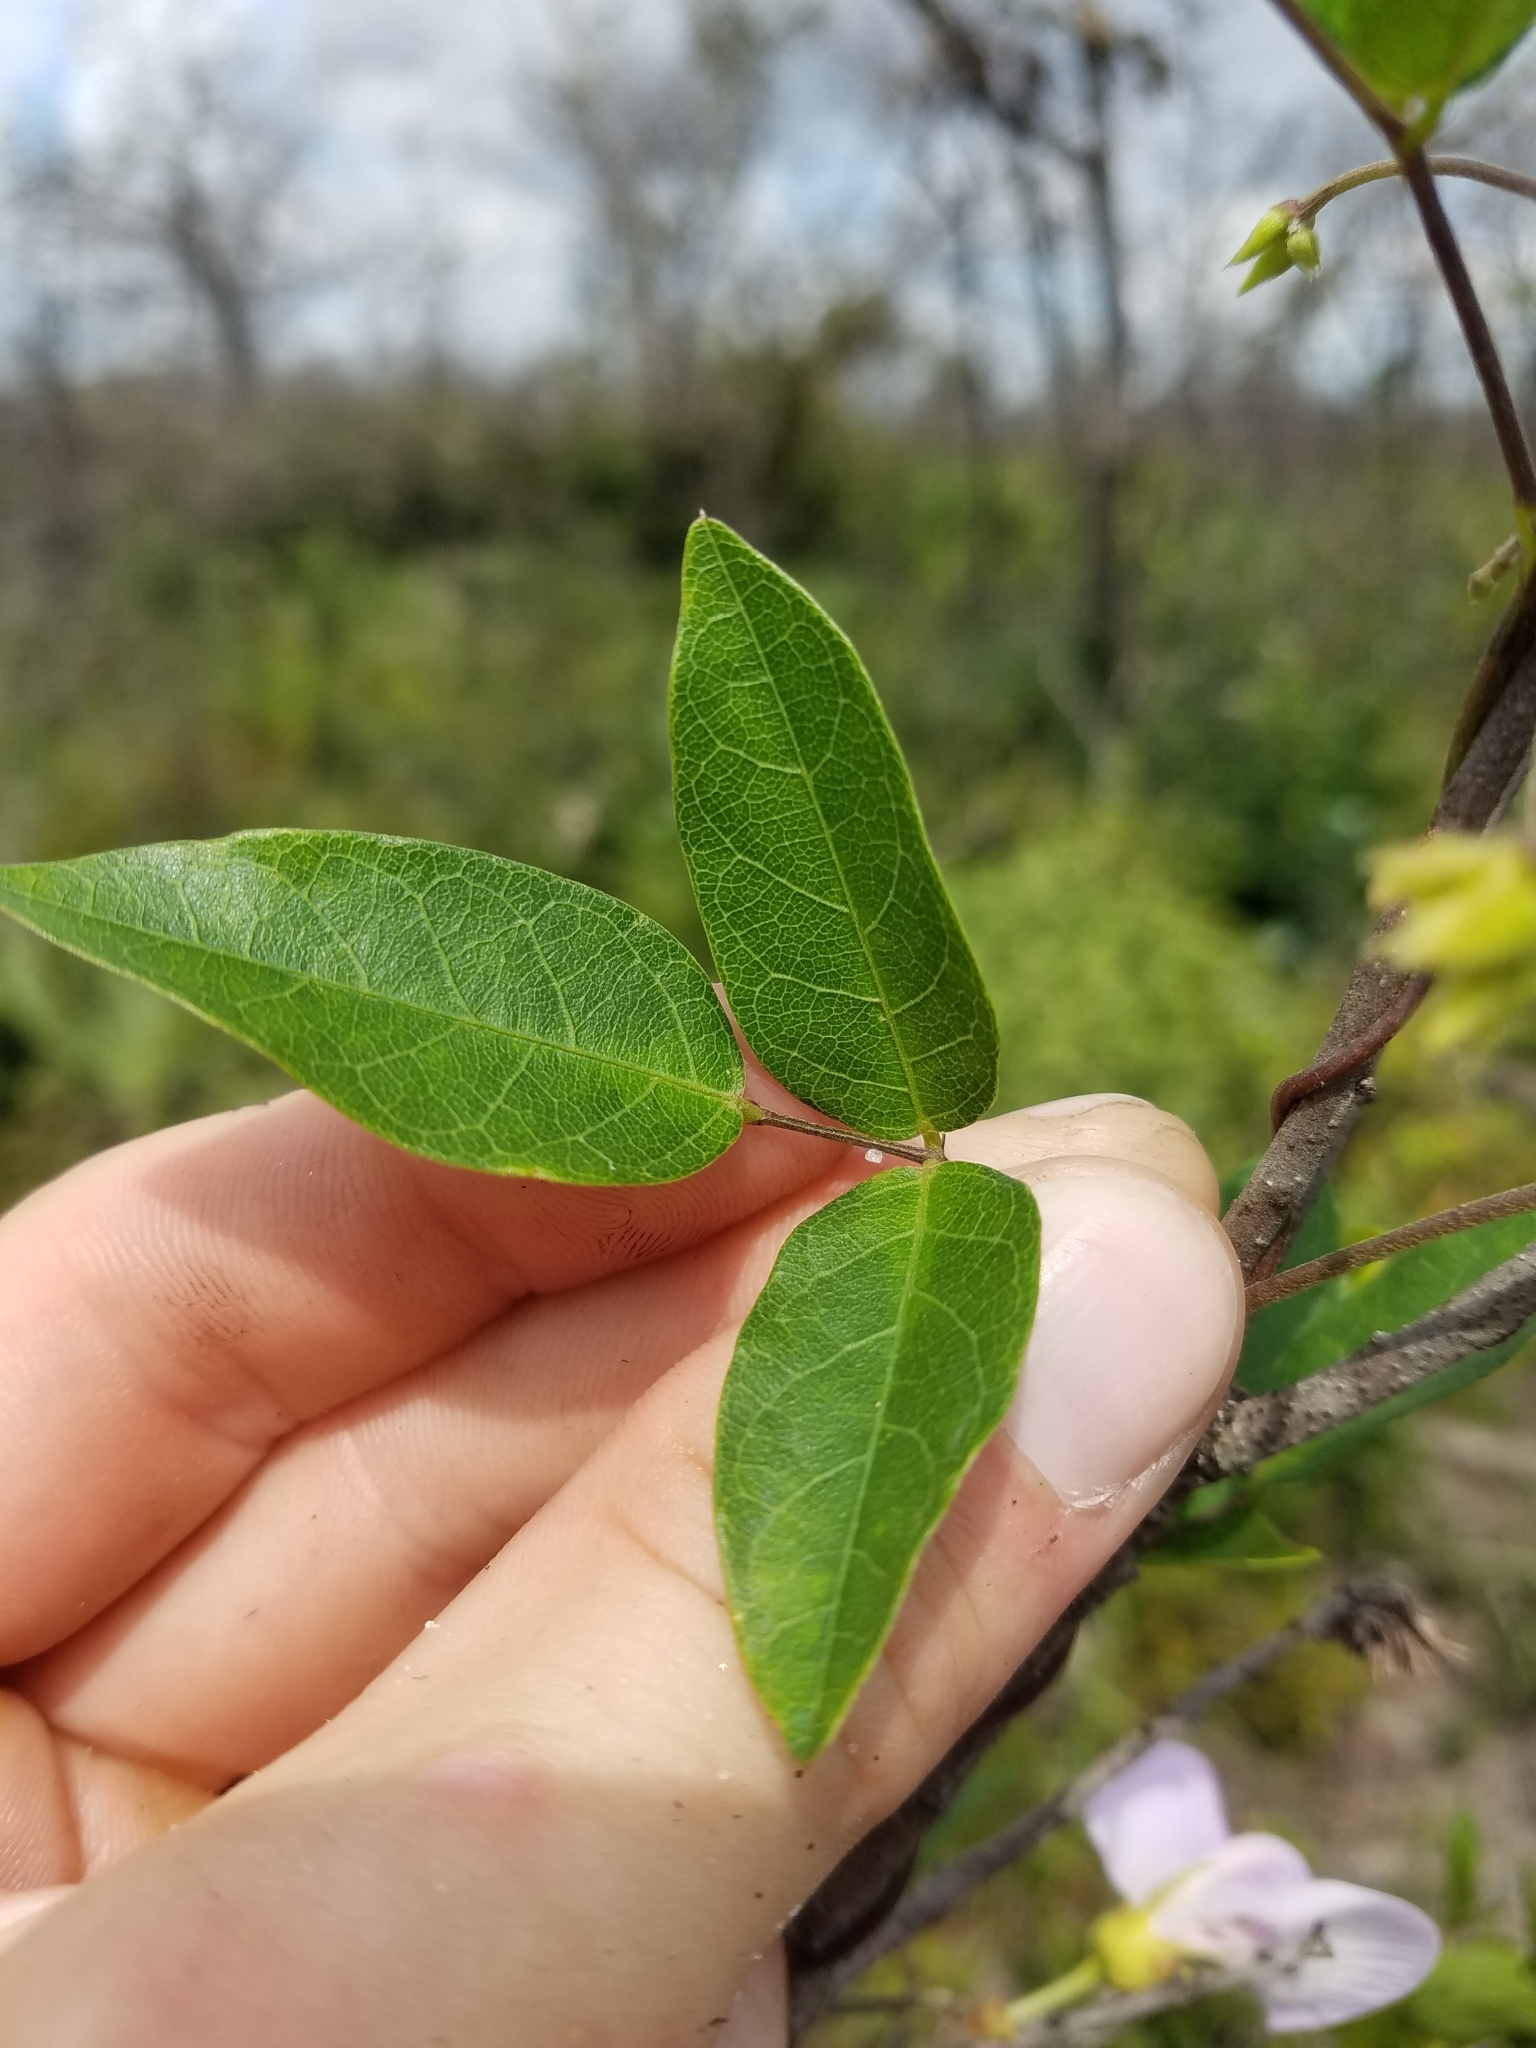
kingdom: Plantae
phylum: Tracheophyta
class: Magnoliopsida
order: Fabales
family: Fabaceae
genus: Centrosema
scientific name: Centrosema arenicola
